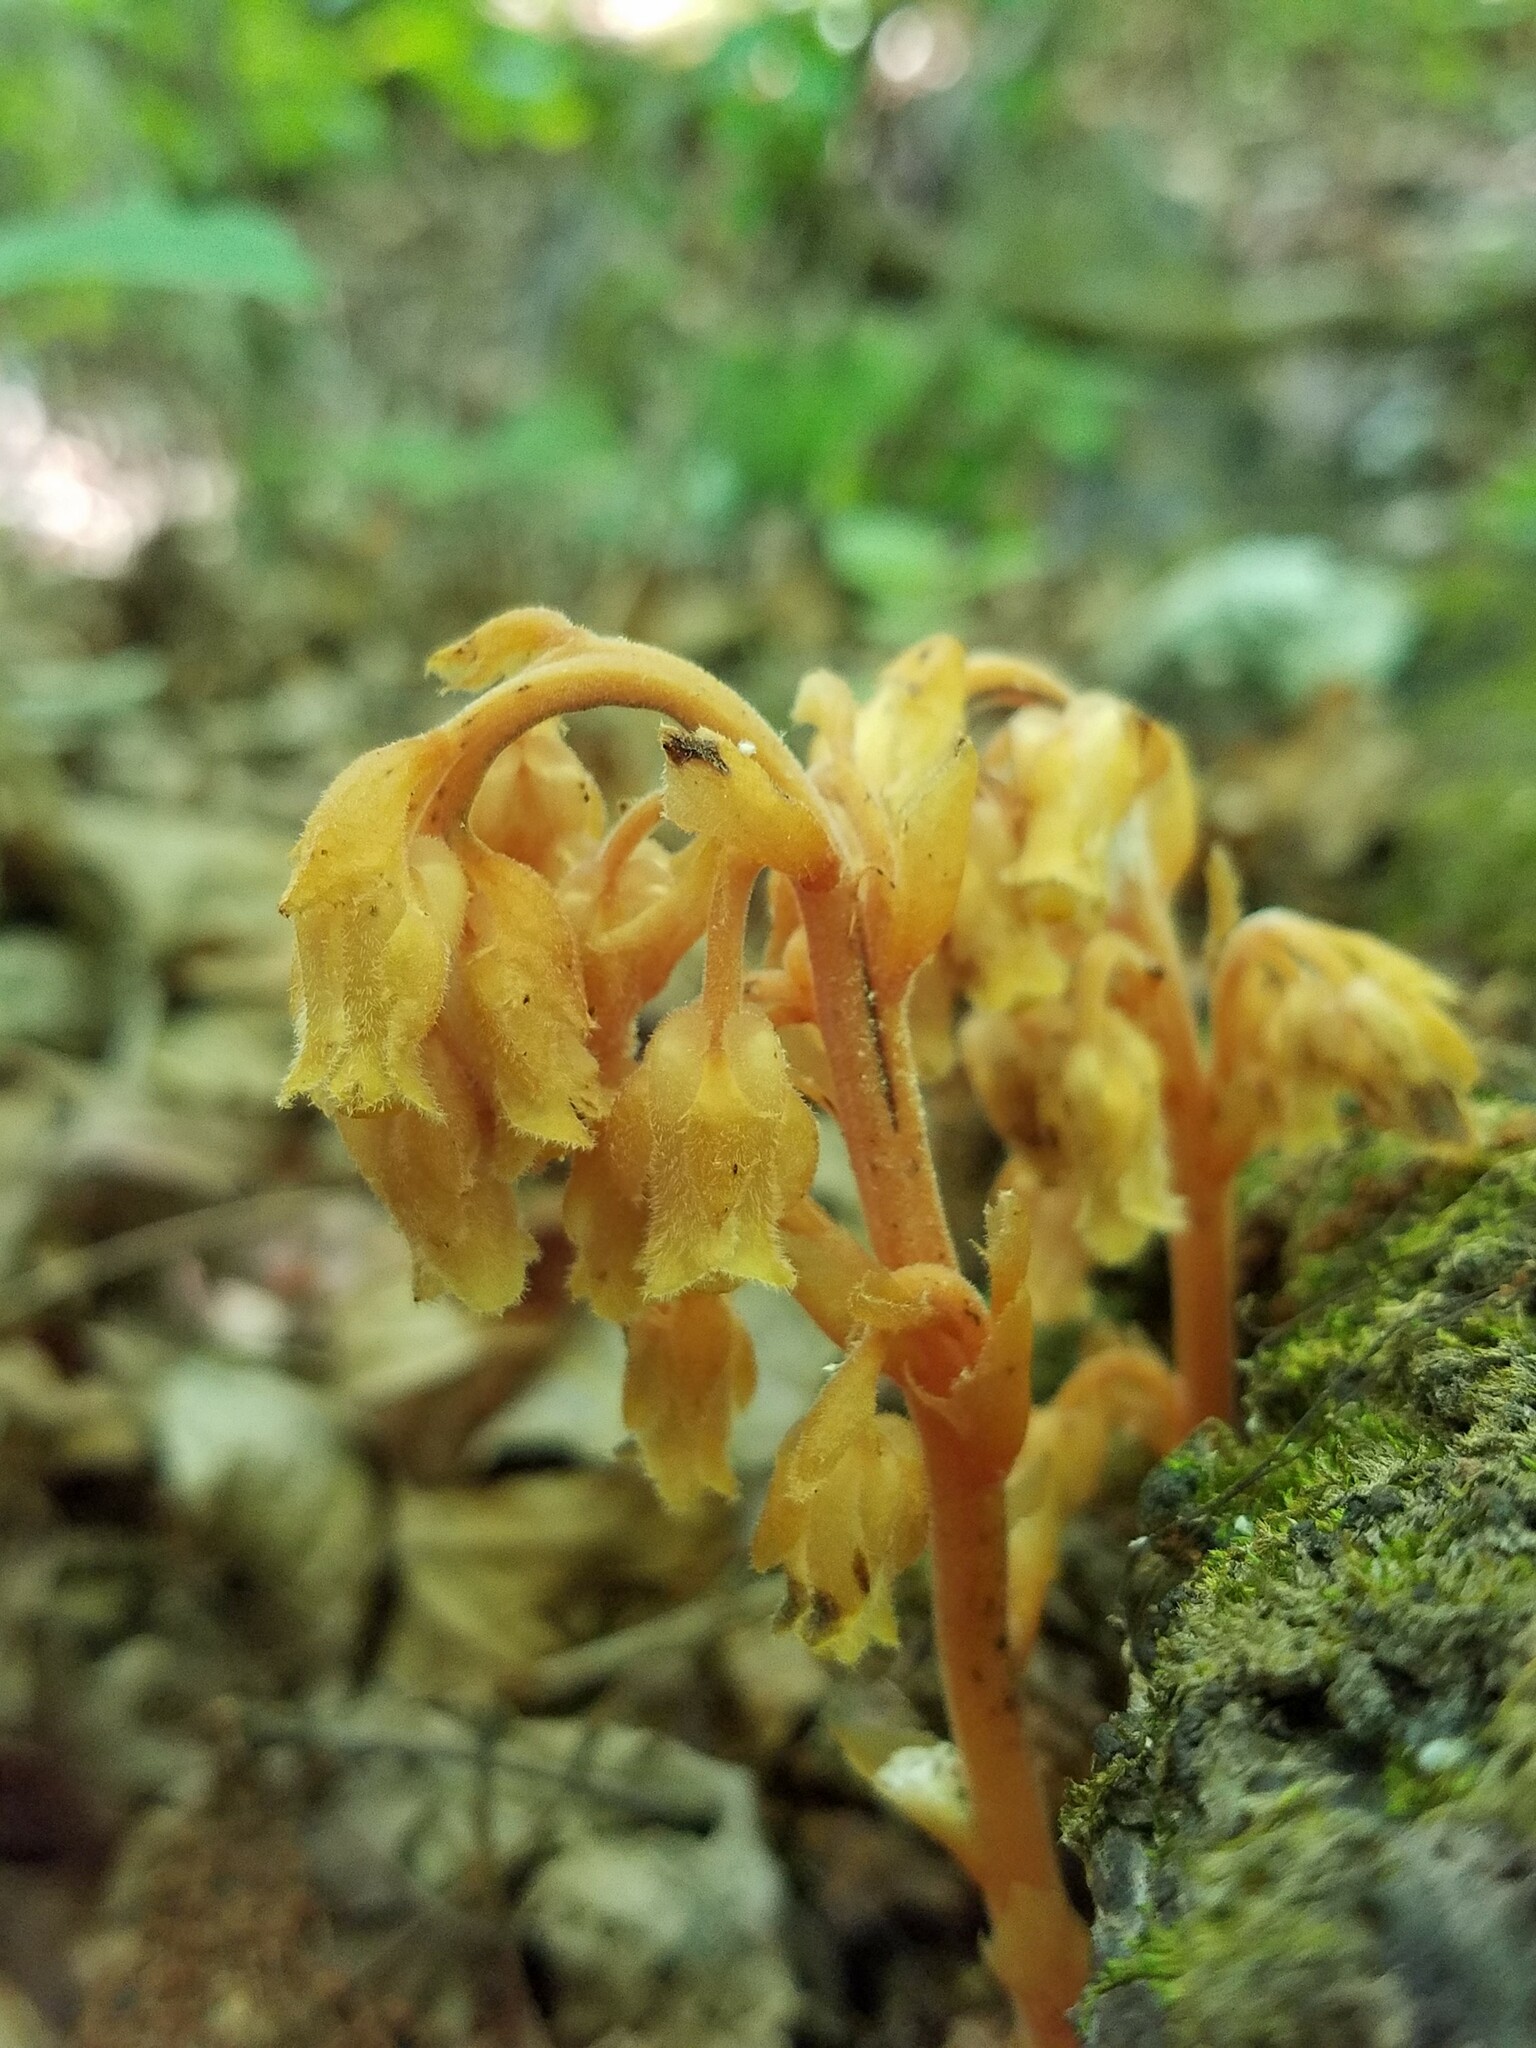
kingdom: Plantae
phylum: Tracheophyta
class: Magnoliopsida
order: Ericales
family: Ericaceae
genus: Hypopitys
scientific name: Hypopitys monotropa
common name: Yellow bird's-nest
